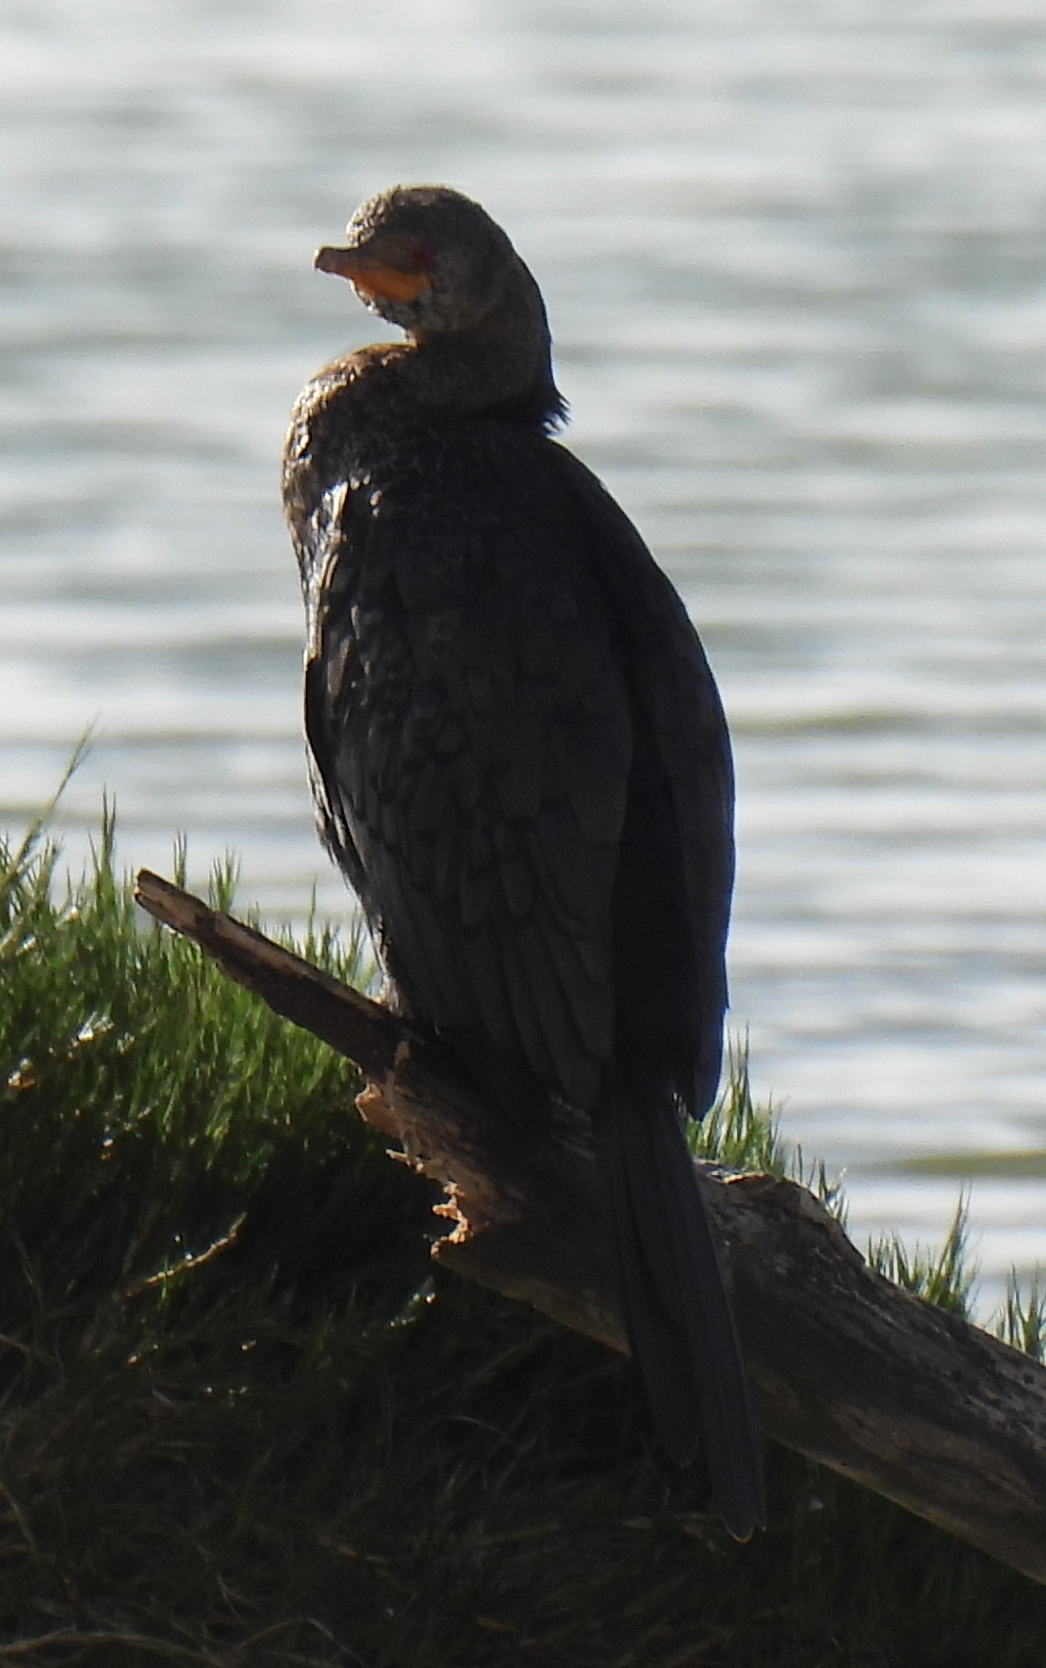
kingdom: Animalia
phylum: Chordata
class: Aves
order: Suliformes
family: Phalacrocoracidae
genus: Microcarbo
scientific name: Microcarbo africanus
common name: Long-tailed cormorant
